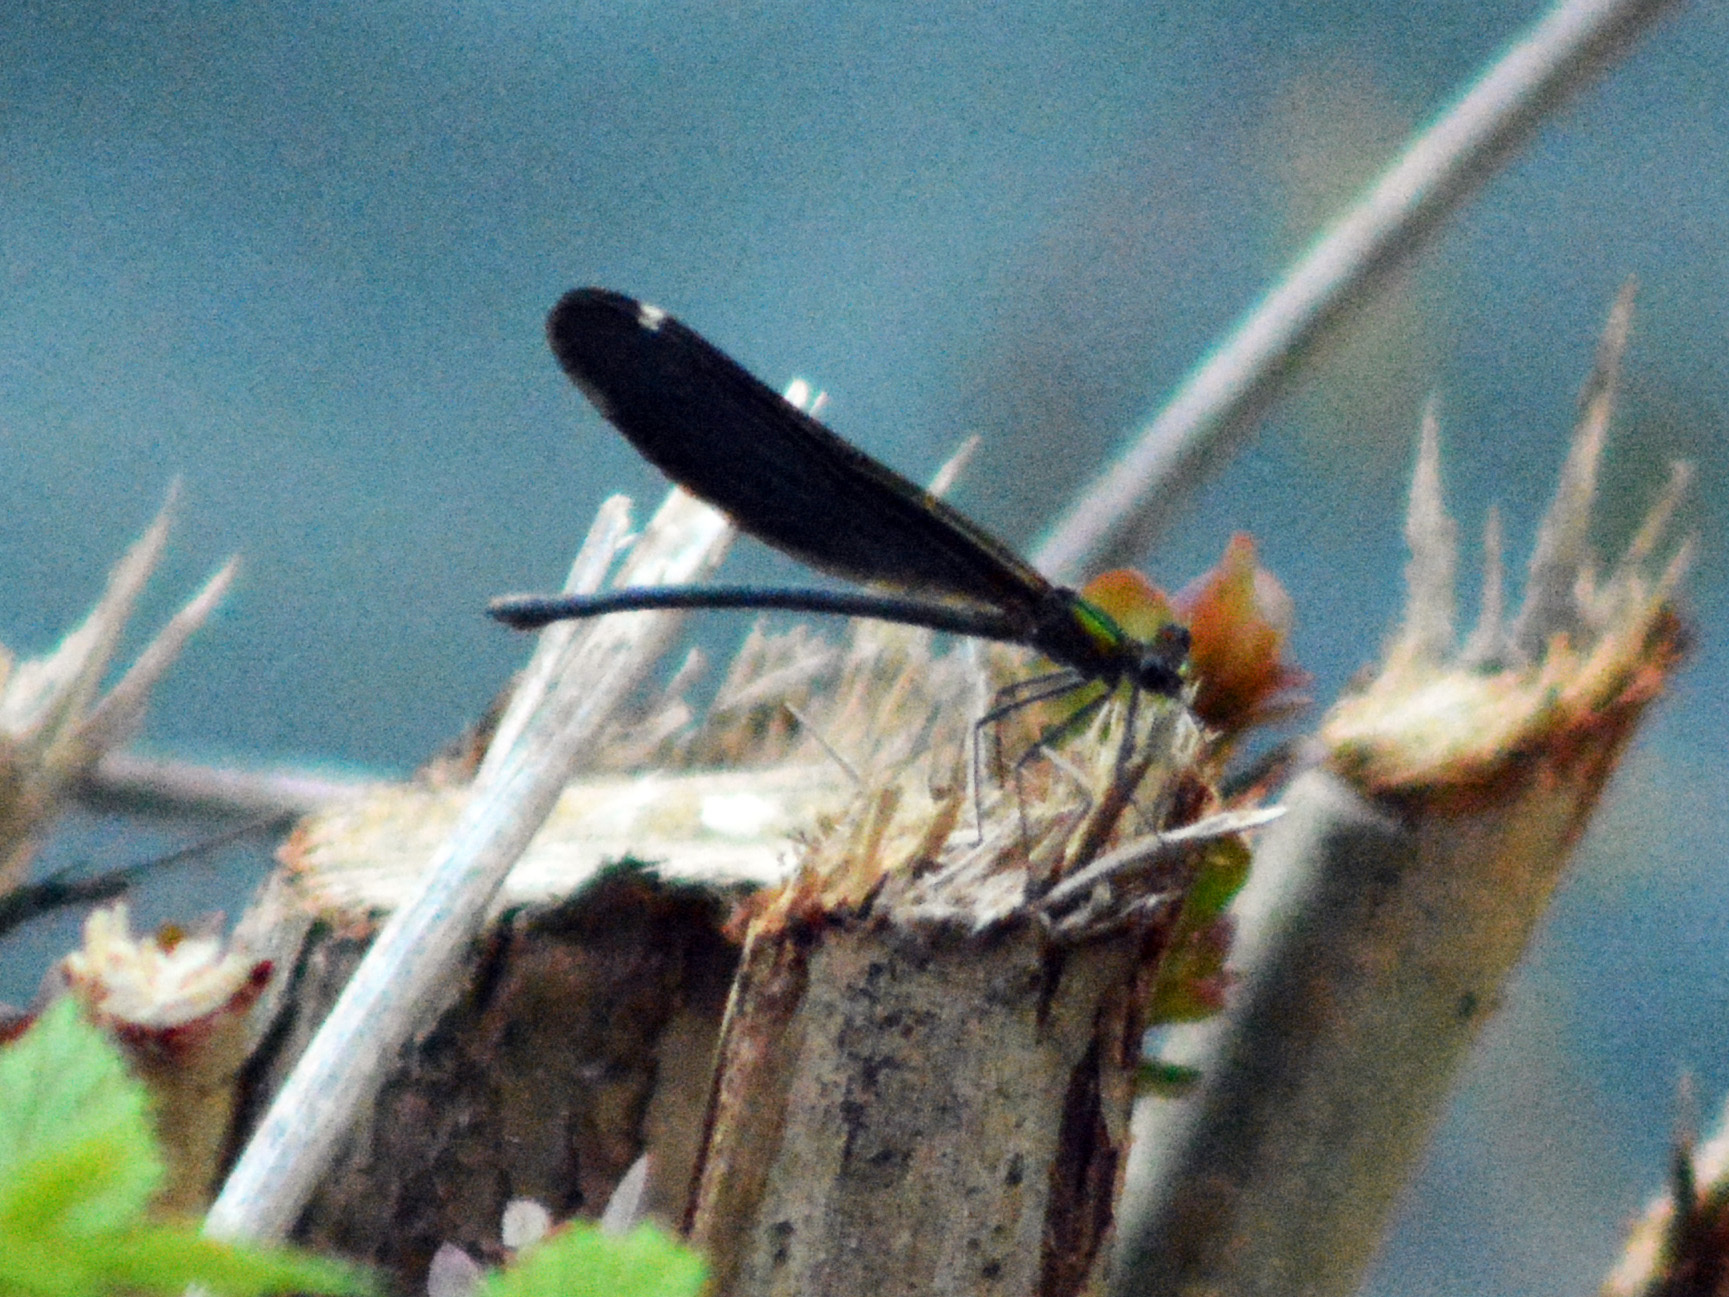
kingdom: Animalia
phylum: Arthropoda
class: Insecta
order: Odonata
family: Calopterygidae
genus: Calopteryx
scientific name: Calopteryx virgo
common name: Beautiful demoiselle
